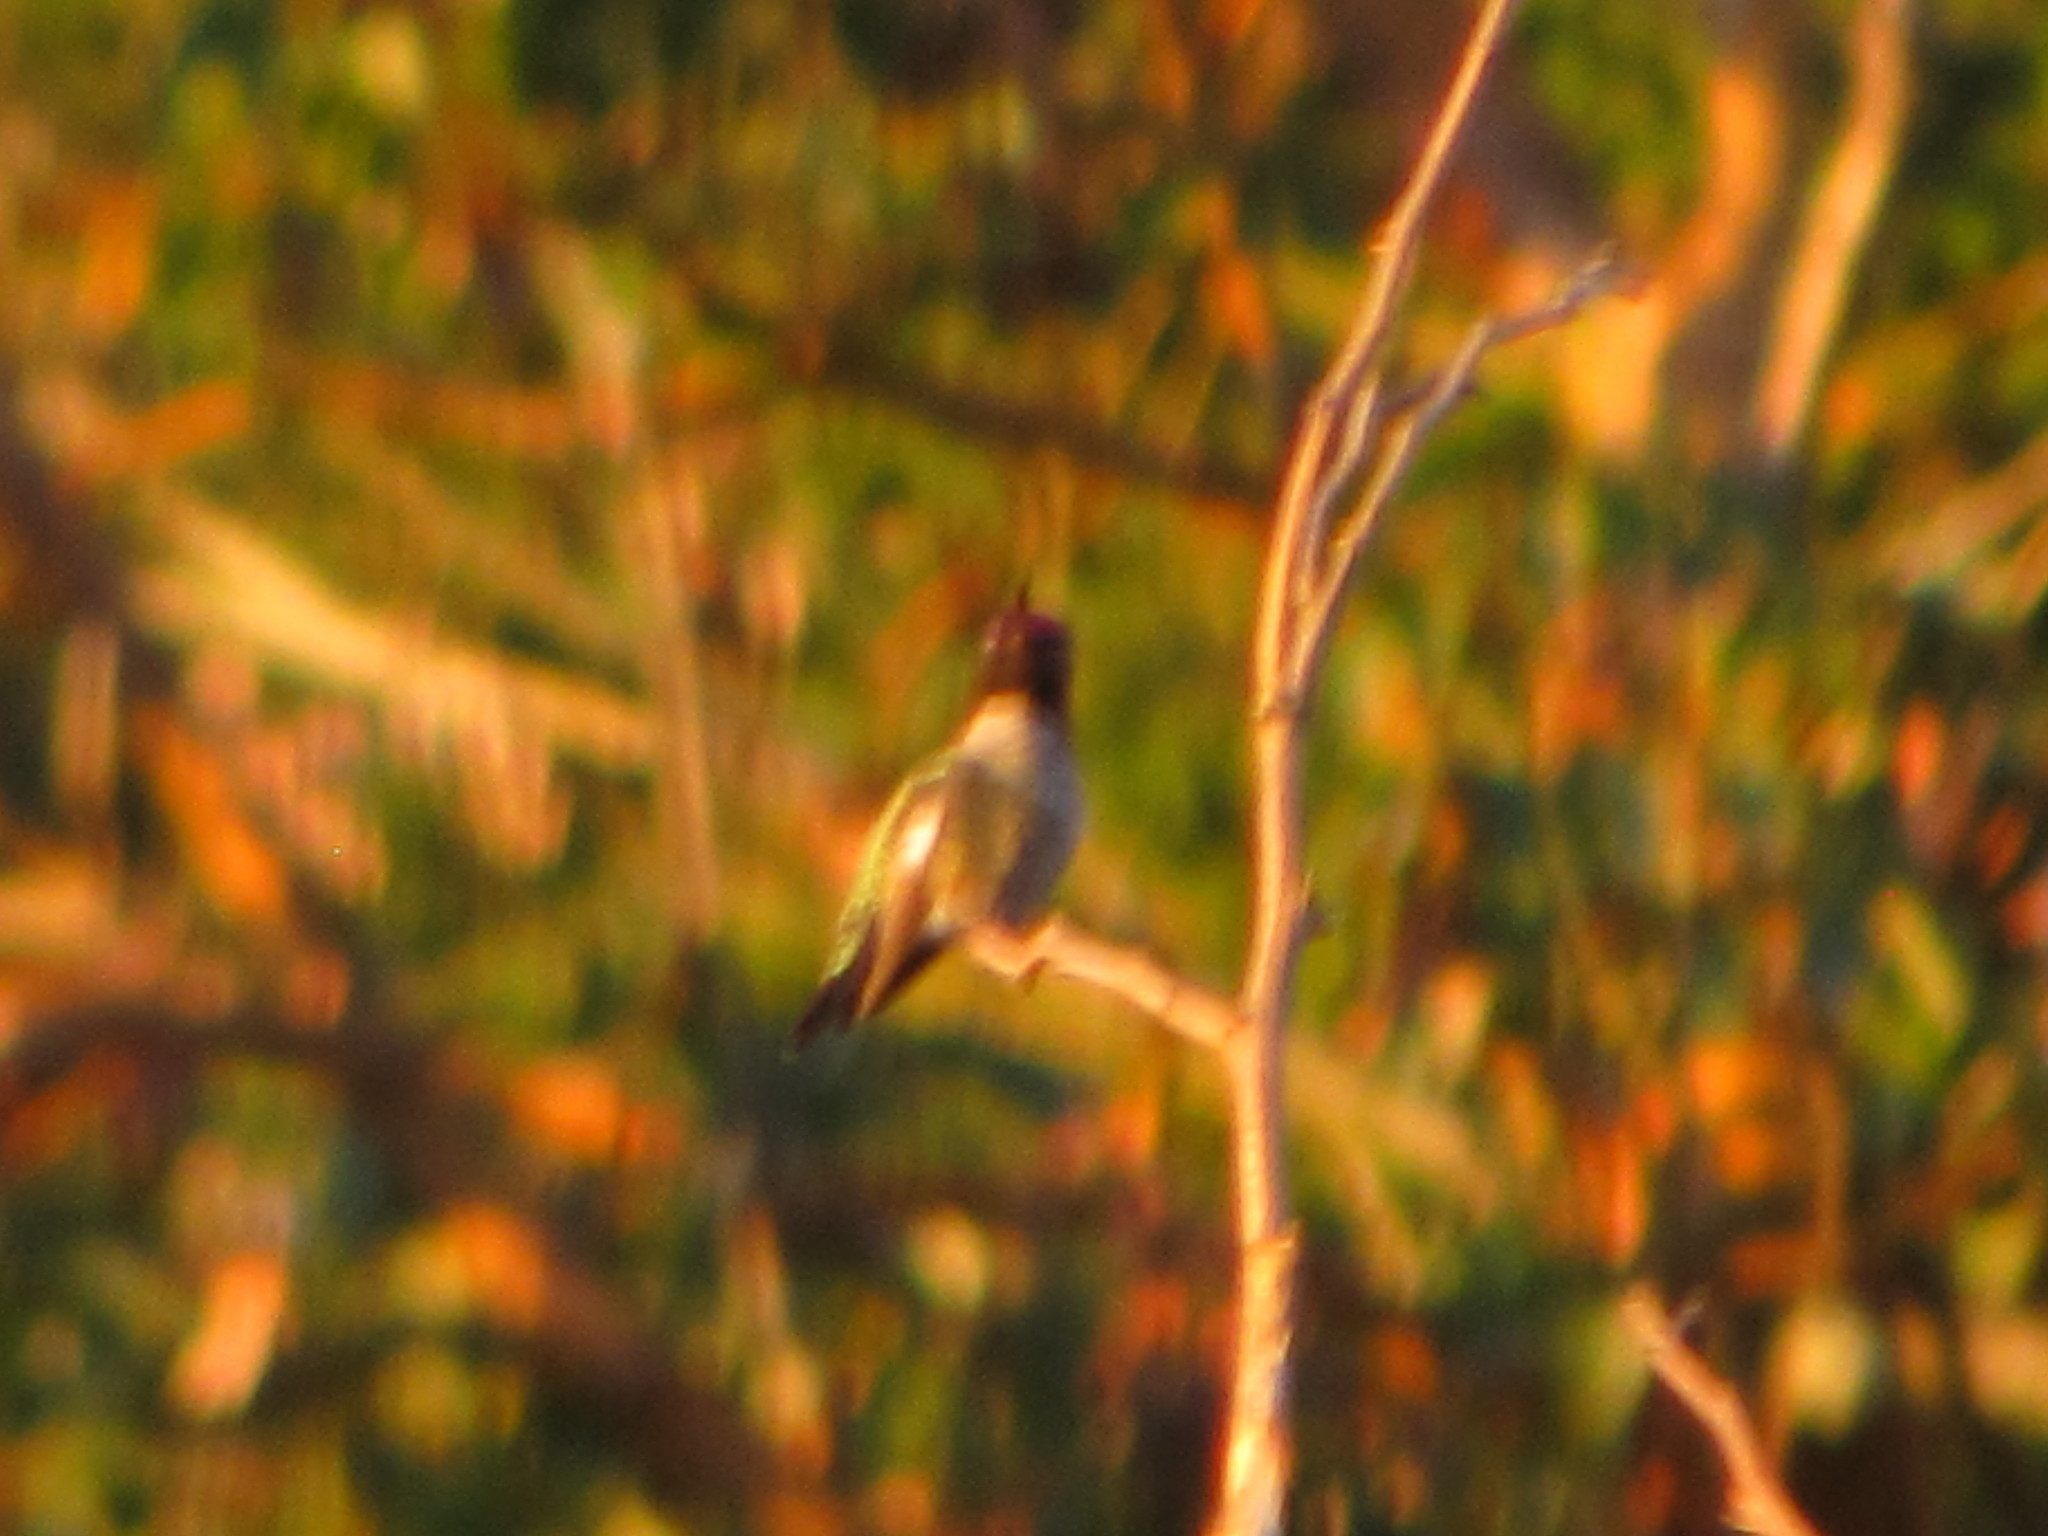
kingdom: Animalia
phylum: Chordata
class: Aves
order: Apodiformes
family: Trochilidae
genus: Calypte
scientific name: Calypte anna
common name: Anna's hummingbird
